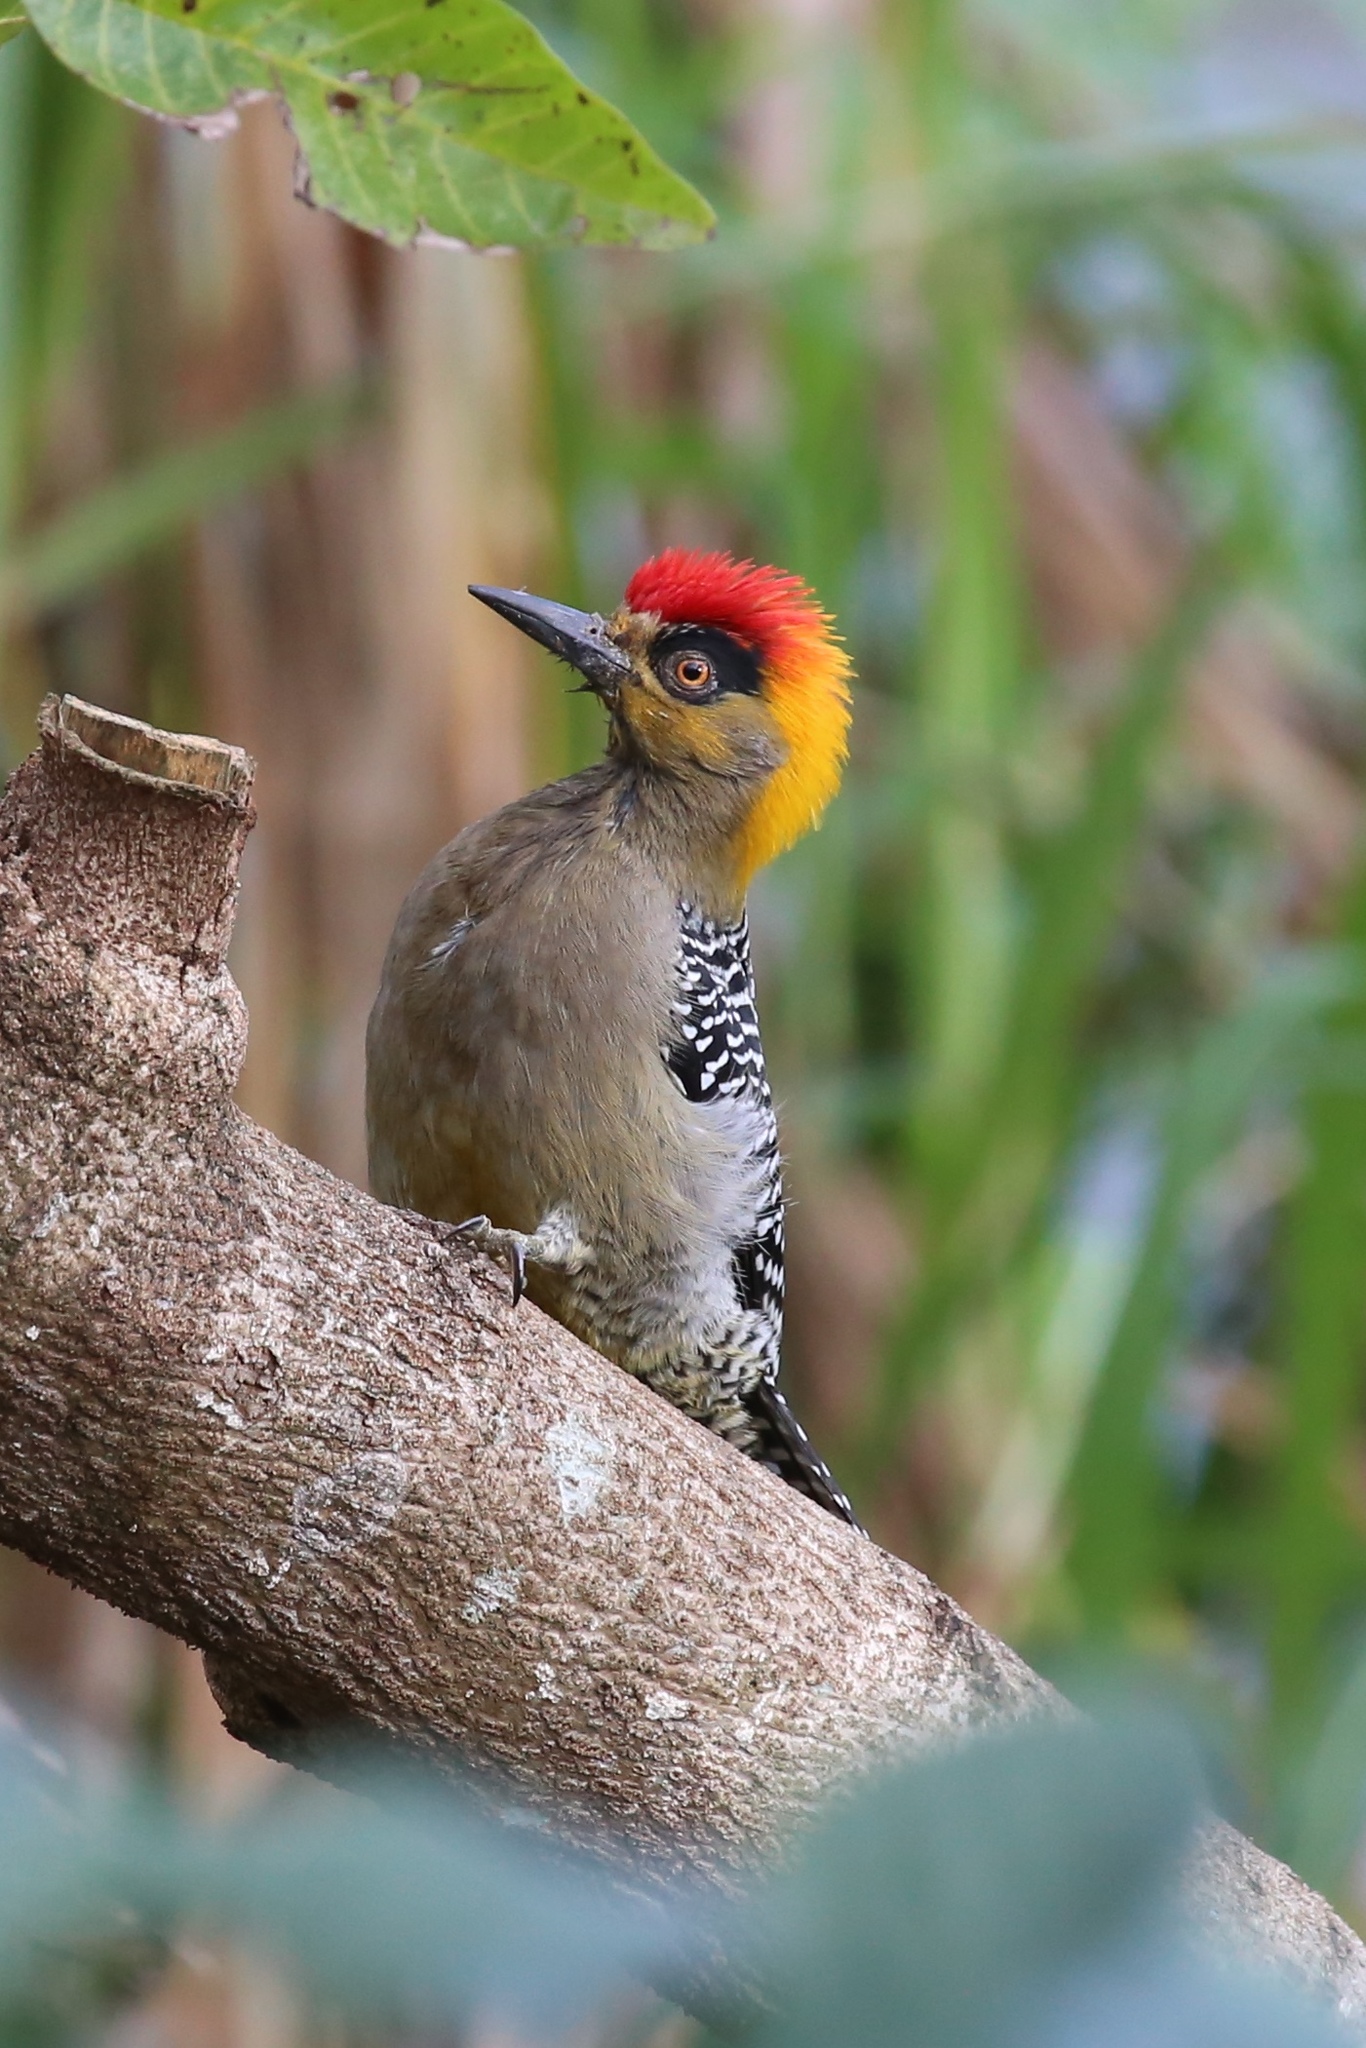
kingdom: Animalia
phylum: Chordata
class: Aves
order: Piciformes
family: Picidae
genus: Melanerpes
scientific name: Melanerpes chrysogenys
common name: Golden-cheeked woodpecker
